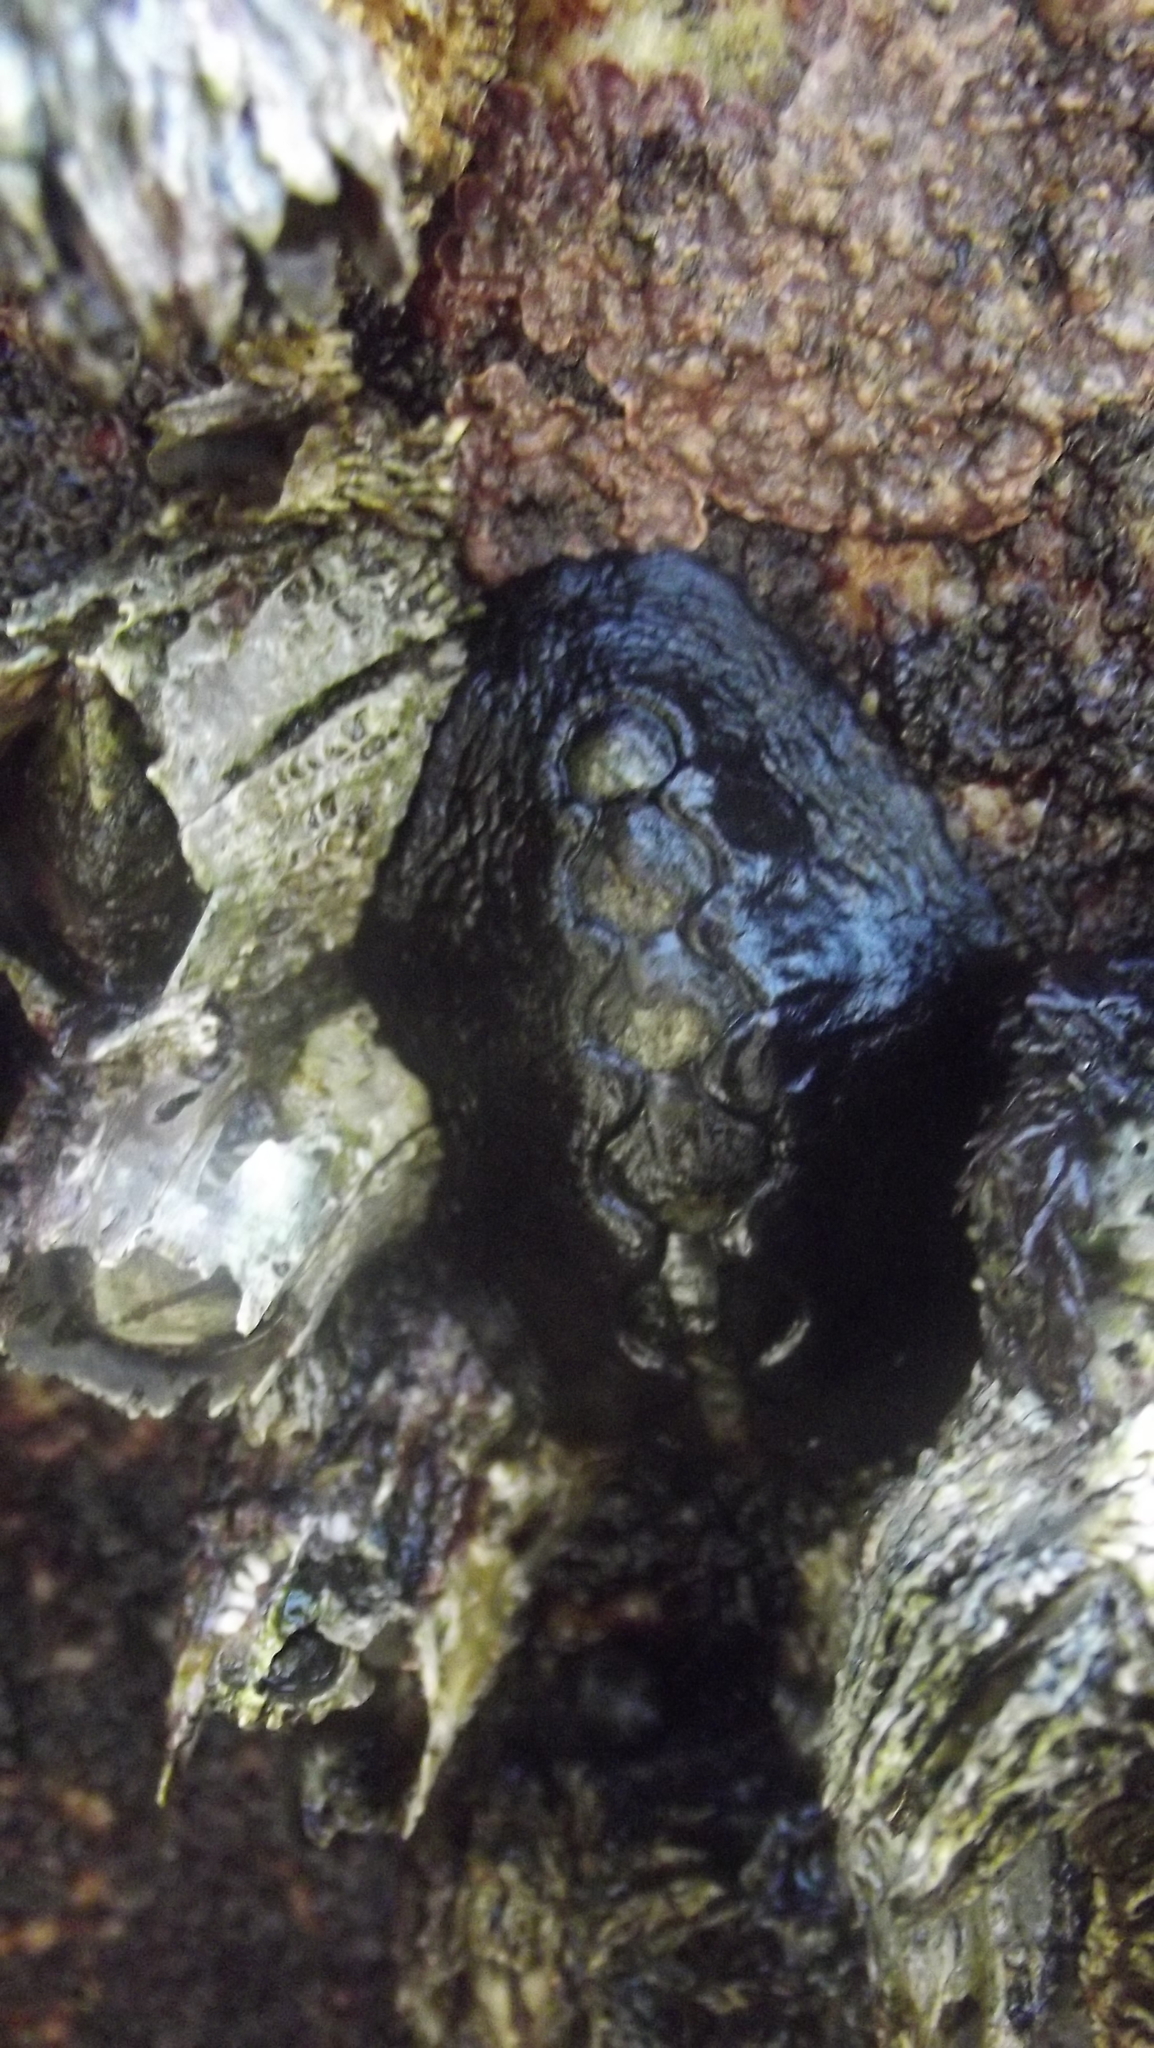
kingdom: Animalia
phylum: Mollusca
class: Polyplacophora
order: Chitonida
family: Mopaliidae
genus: Katharina
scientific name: Katharina tunicata
